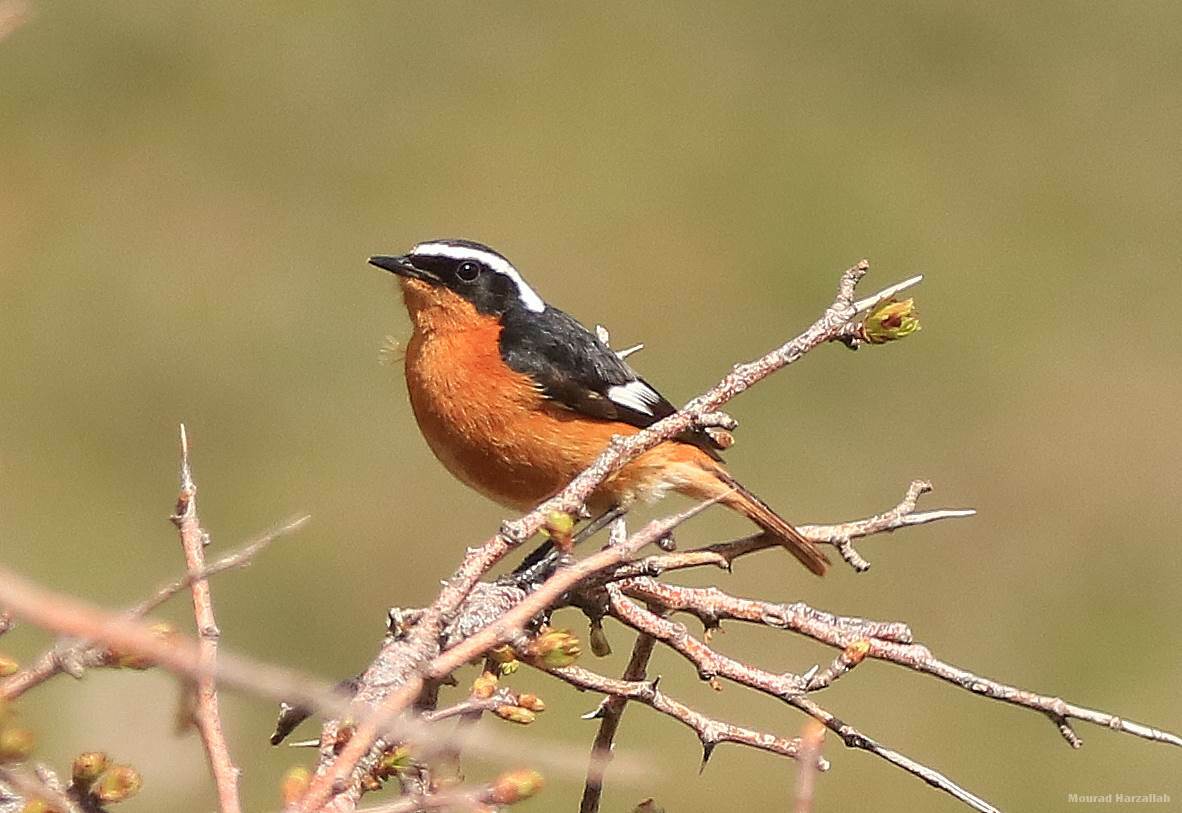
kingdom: Animalia
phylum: Chordata
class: Aves
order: Passeriformes
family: Muscicapidae
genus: Phoenicurus
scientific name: Phoenicurus moussieri
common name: Moussier's redstart
